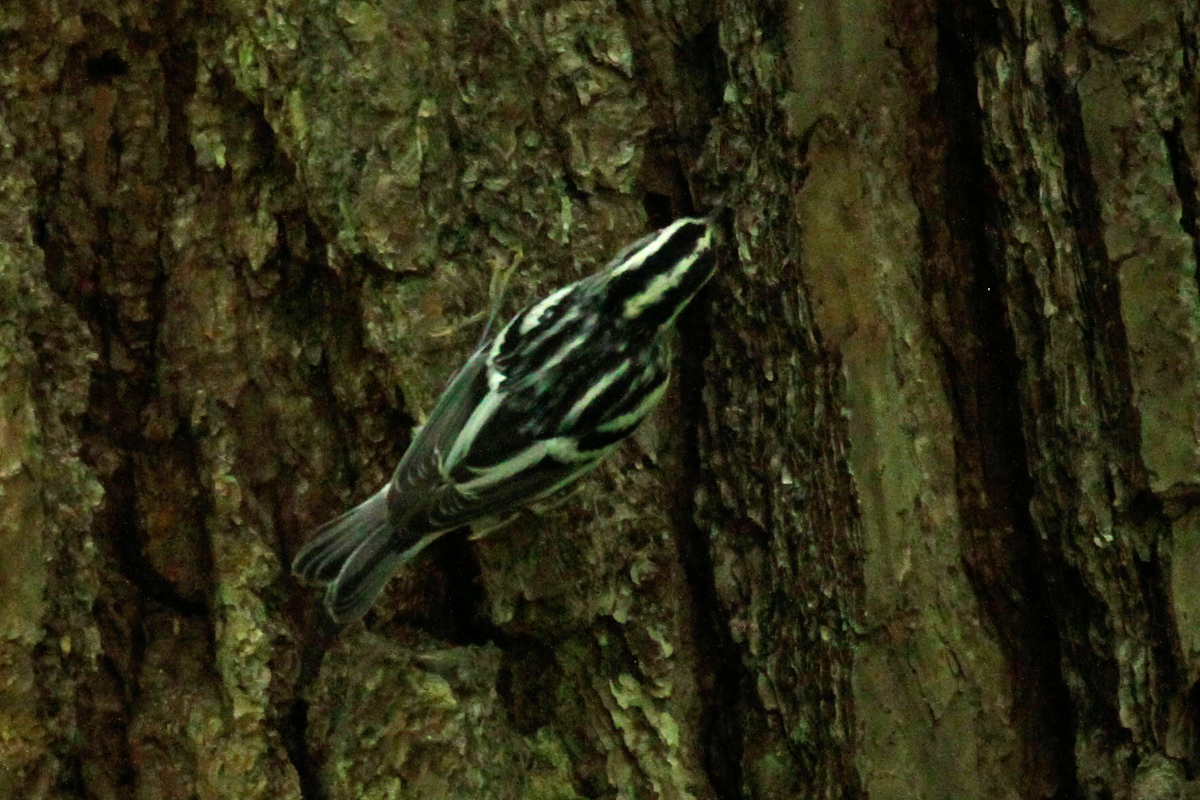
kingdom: Animalia
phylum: Chordata
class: Aves
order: Passeriformes
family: Parulidae
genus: Mniotilta
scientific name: Mniotilta varia
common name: Black-and-white warbler
